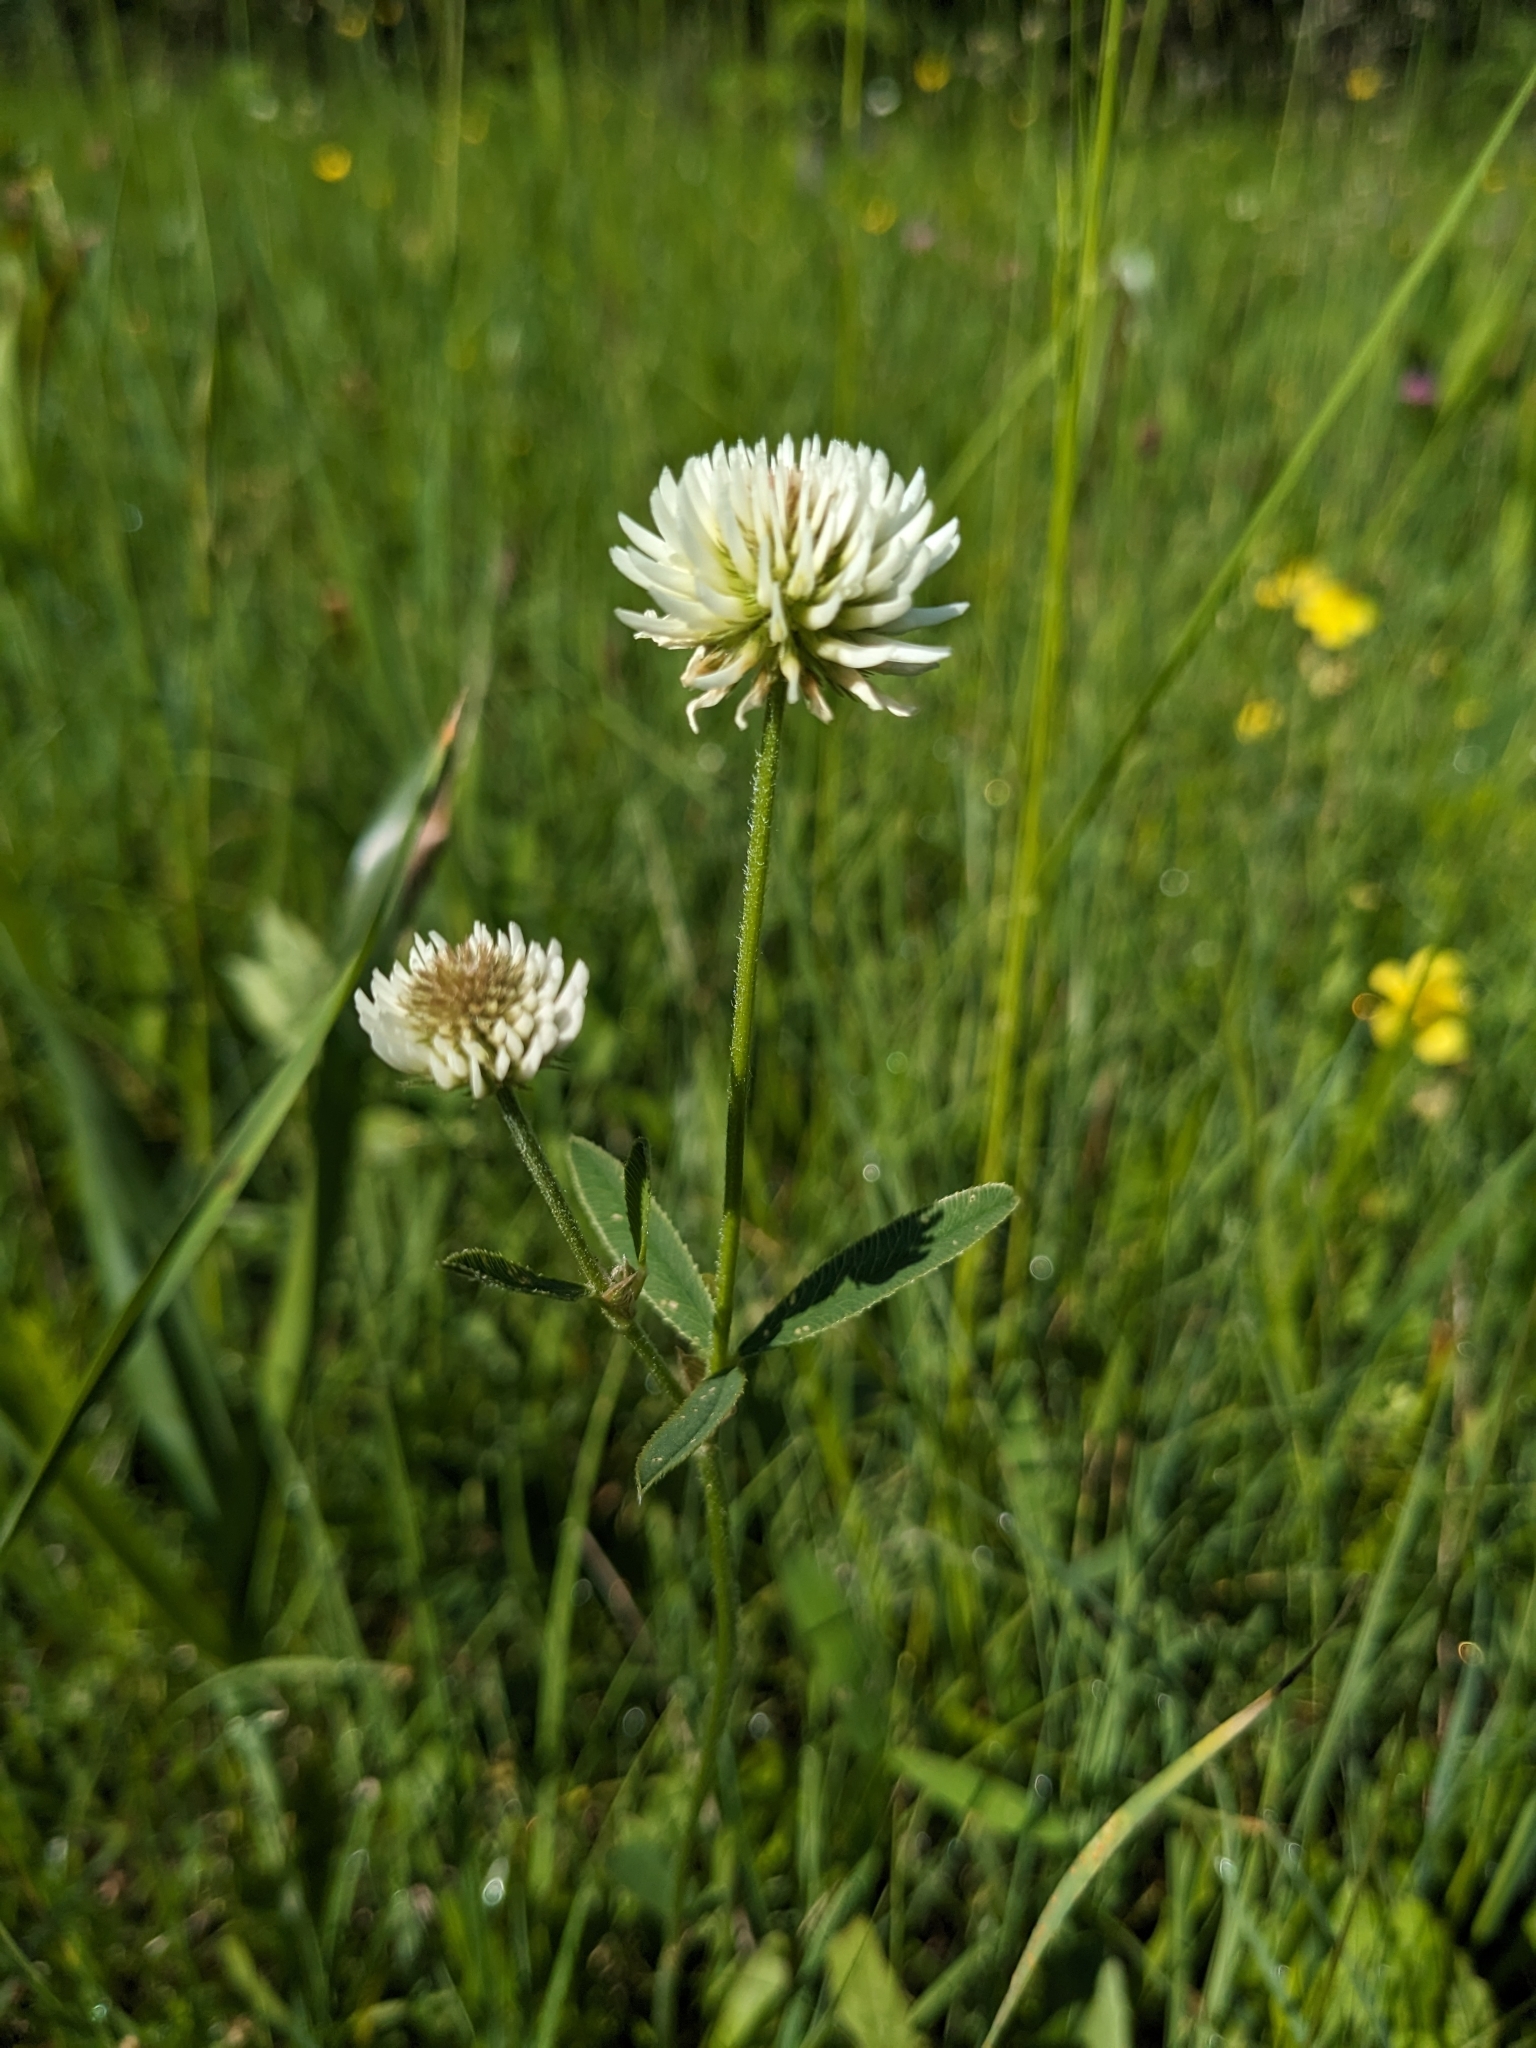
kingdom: Plantae
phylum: Tracheophyta
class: Magnoliopsida
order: Fabales
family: Fabaceae
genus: Trifolium
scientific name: Trifolium montanum
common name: Mountain clover
